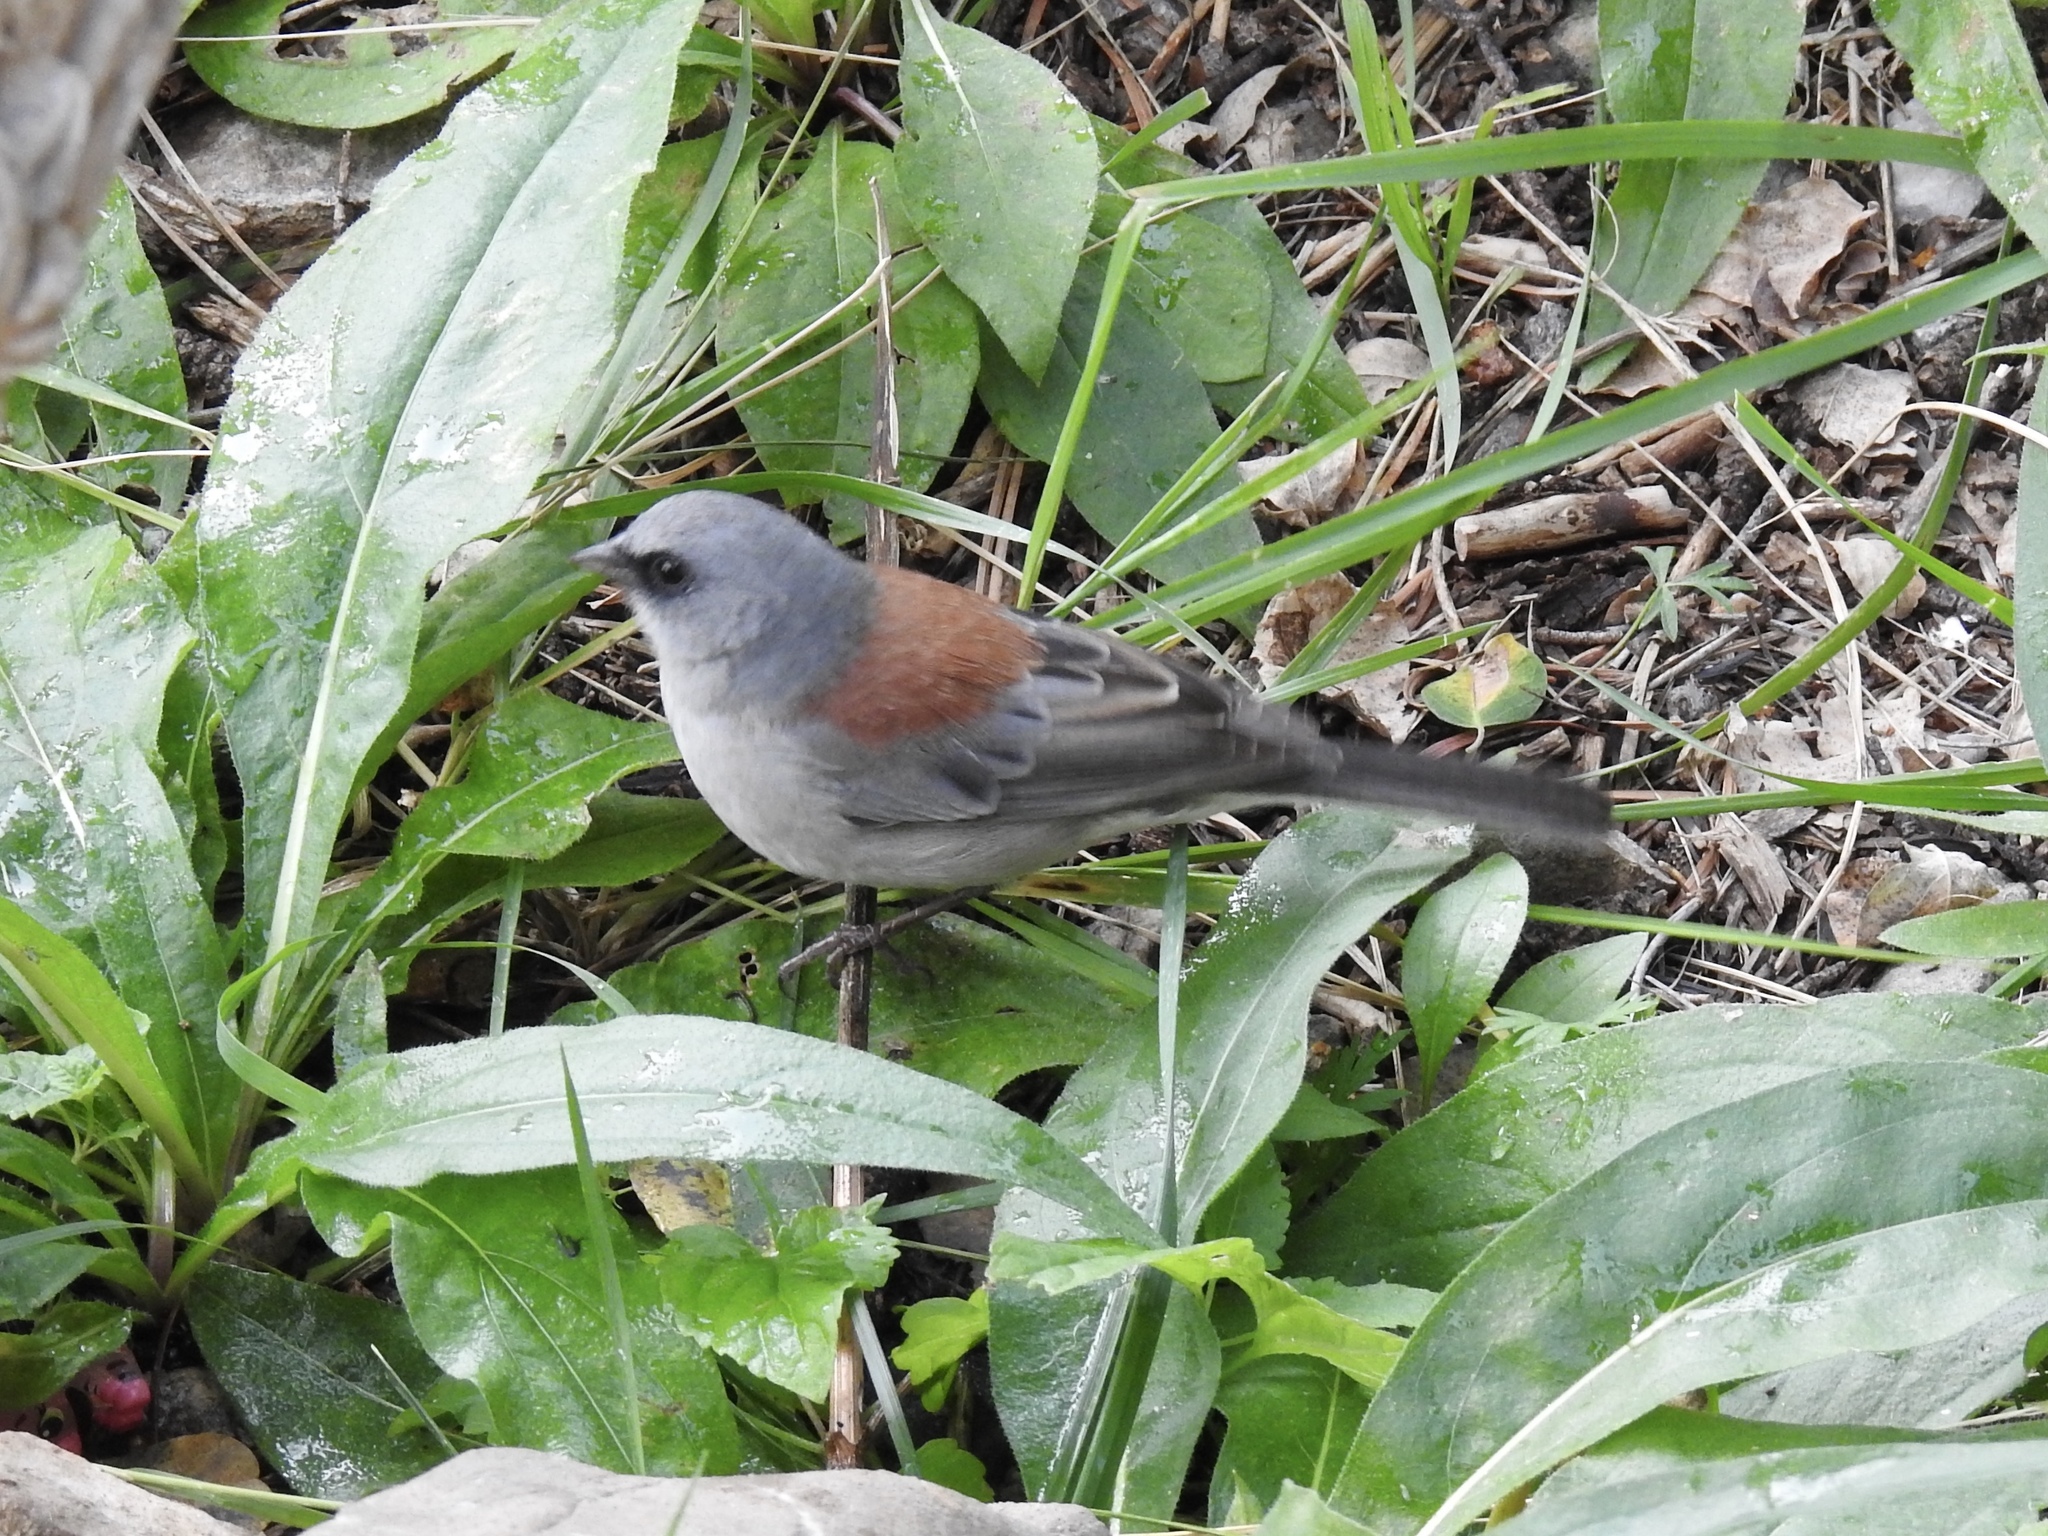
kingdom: Animalia
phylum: Chordata
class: Aves
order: Passeriformes
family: Passerellidae
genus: Junco
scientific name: Junco hyemalis
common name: Dark-eyed junco
